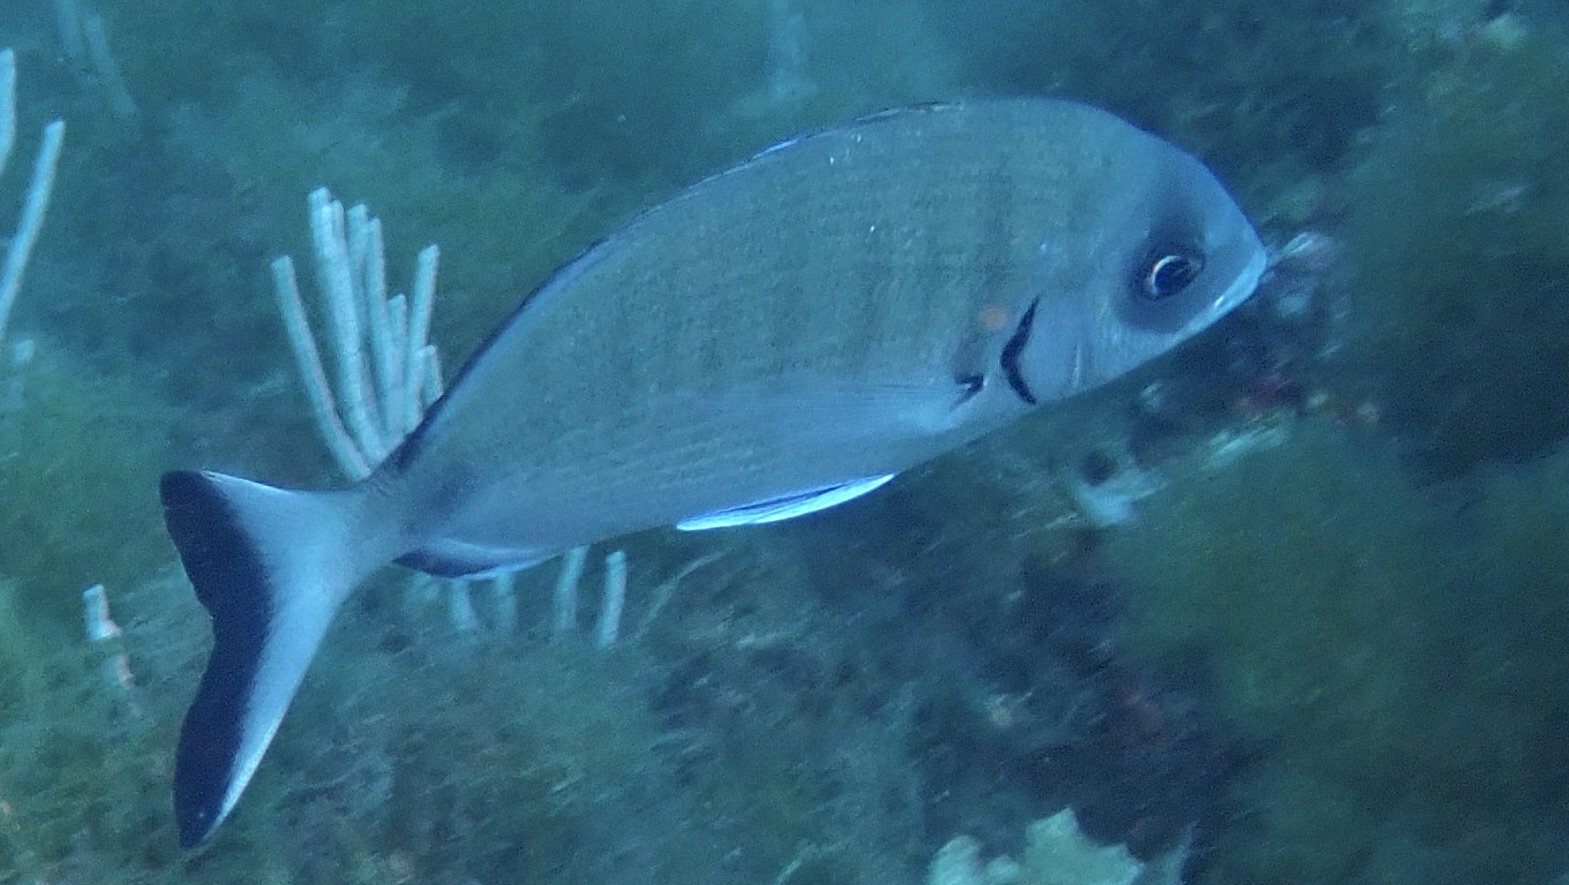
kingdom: Animalia
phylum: Chordata
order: Perciformes
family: Sparidae
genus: Diplodus
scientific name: Diplodus sargus
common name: White seabream
